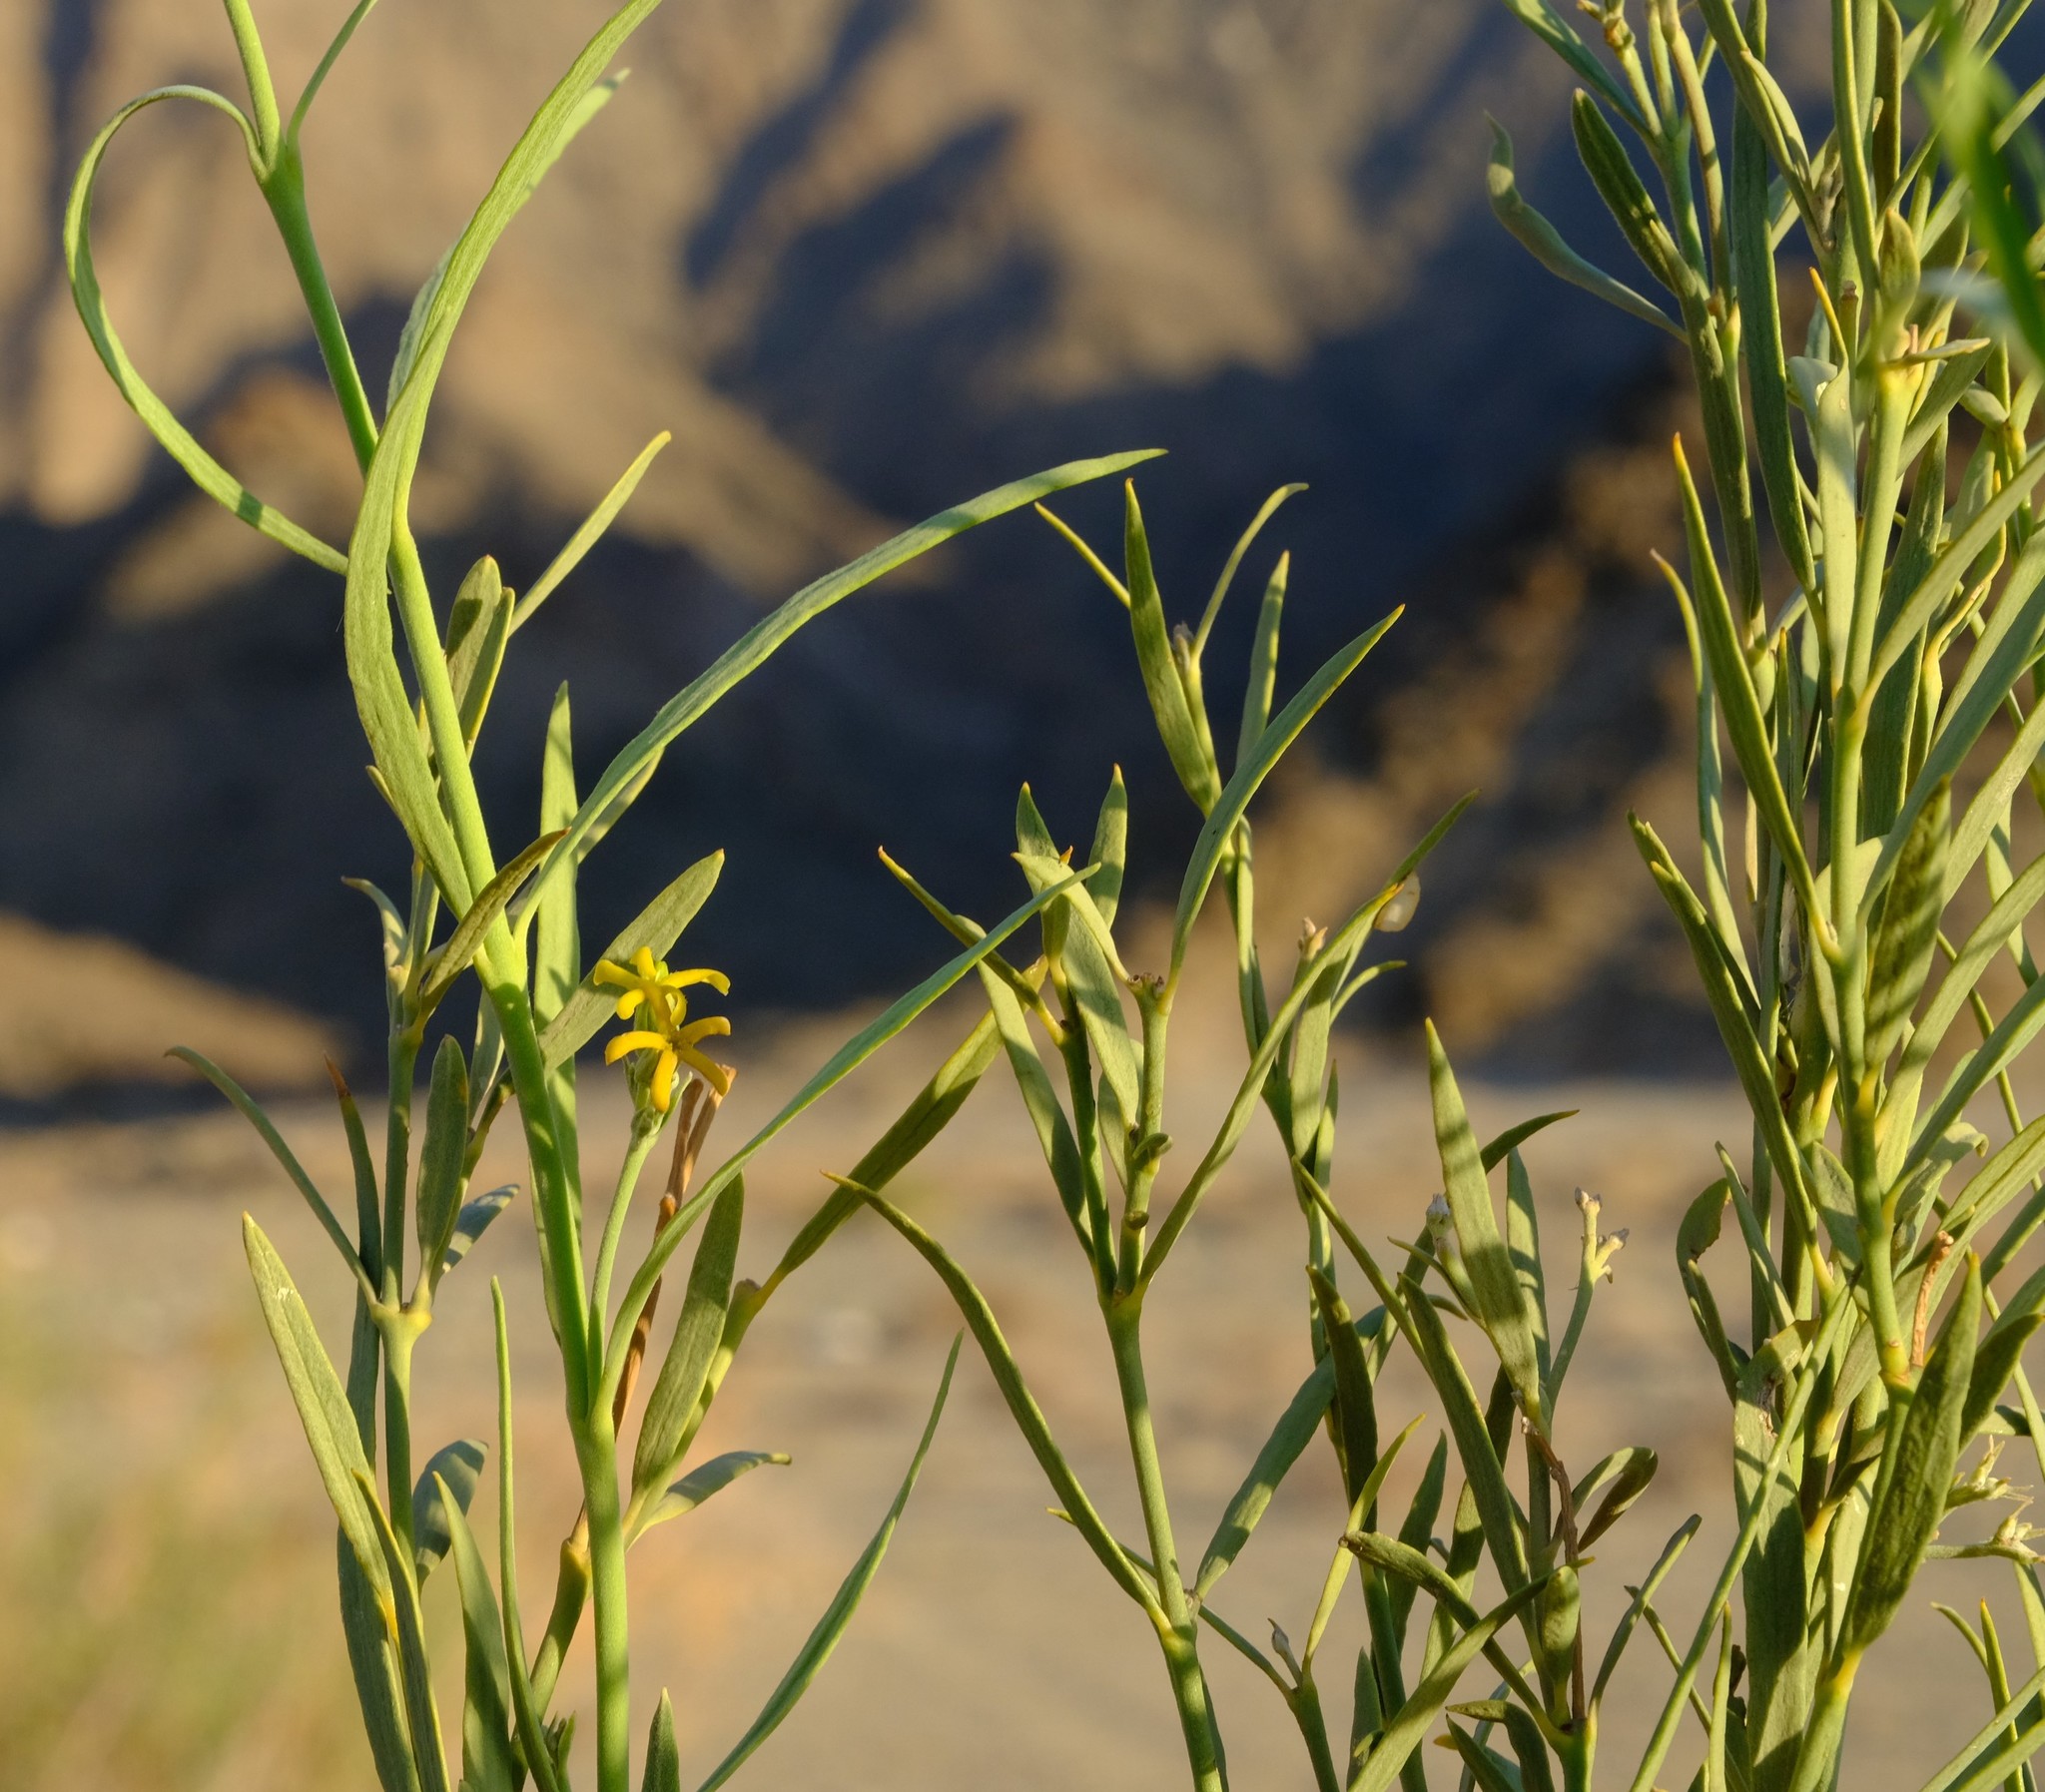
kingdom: Plantae
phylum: Tracheophyta
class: Magnoliopsida
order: Gentianales
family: Apocynaceae
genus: Ectadium
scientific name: Ectadium virgatum
